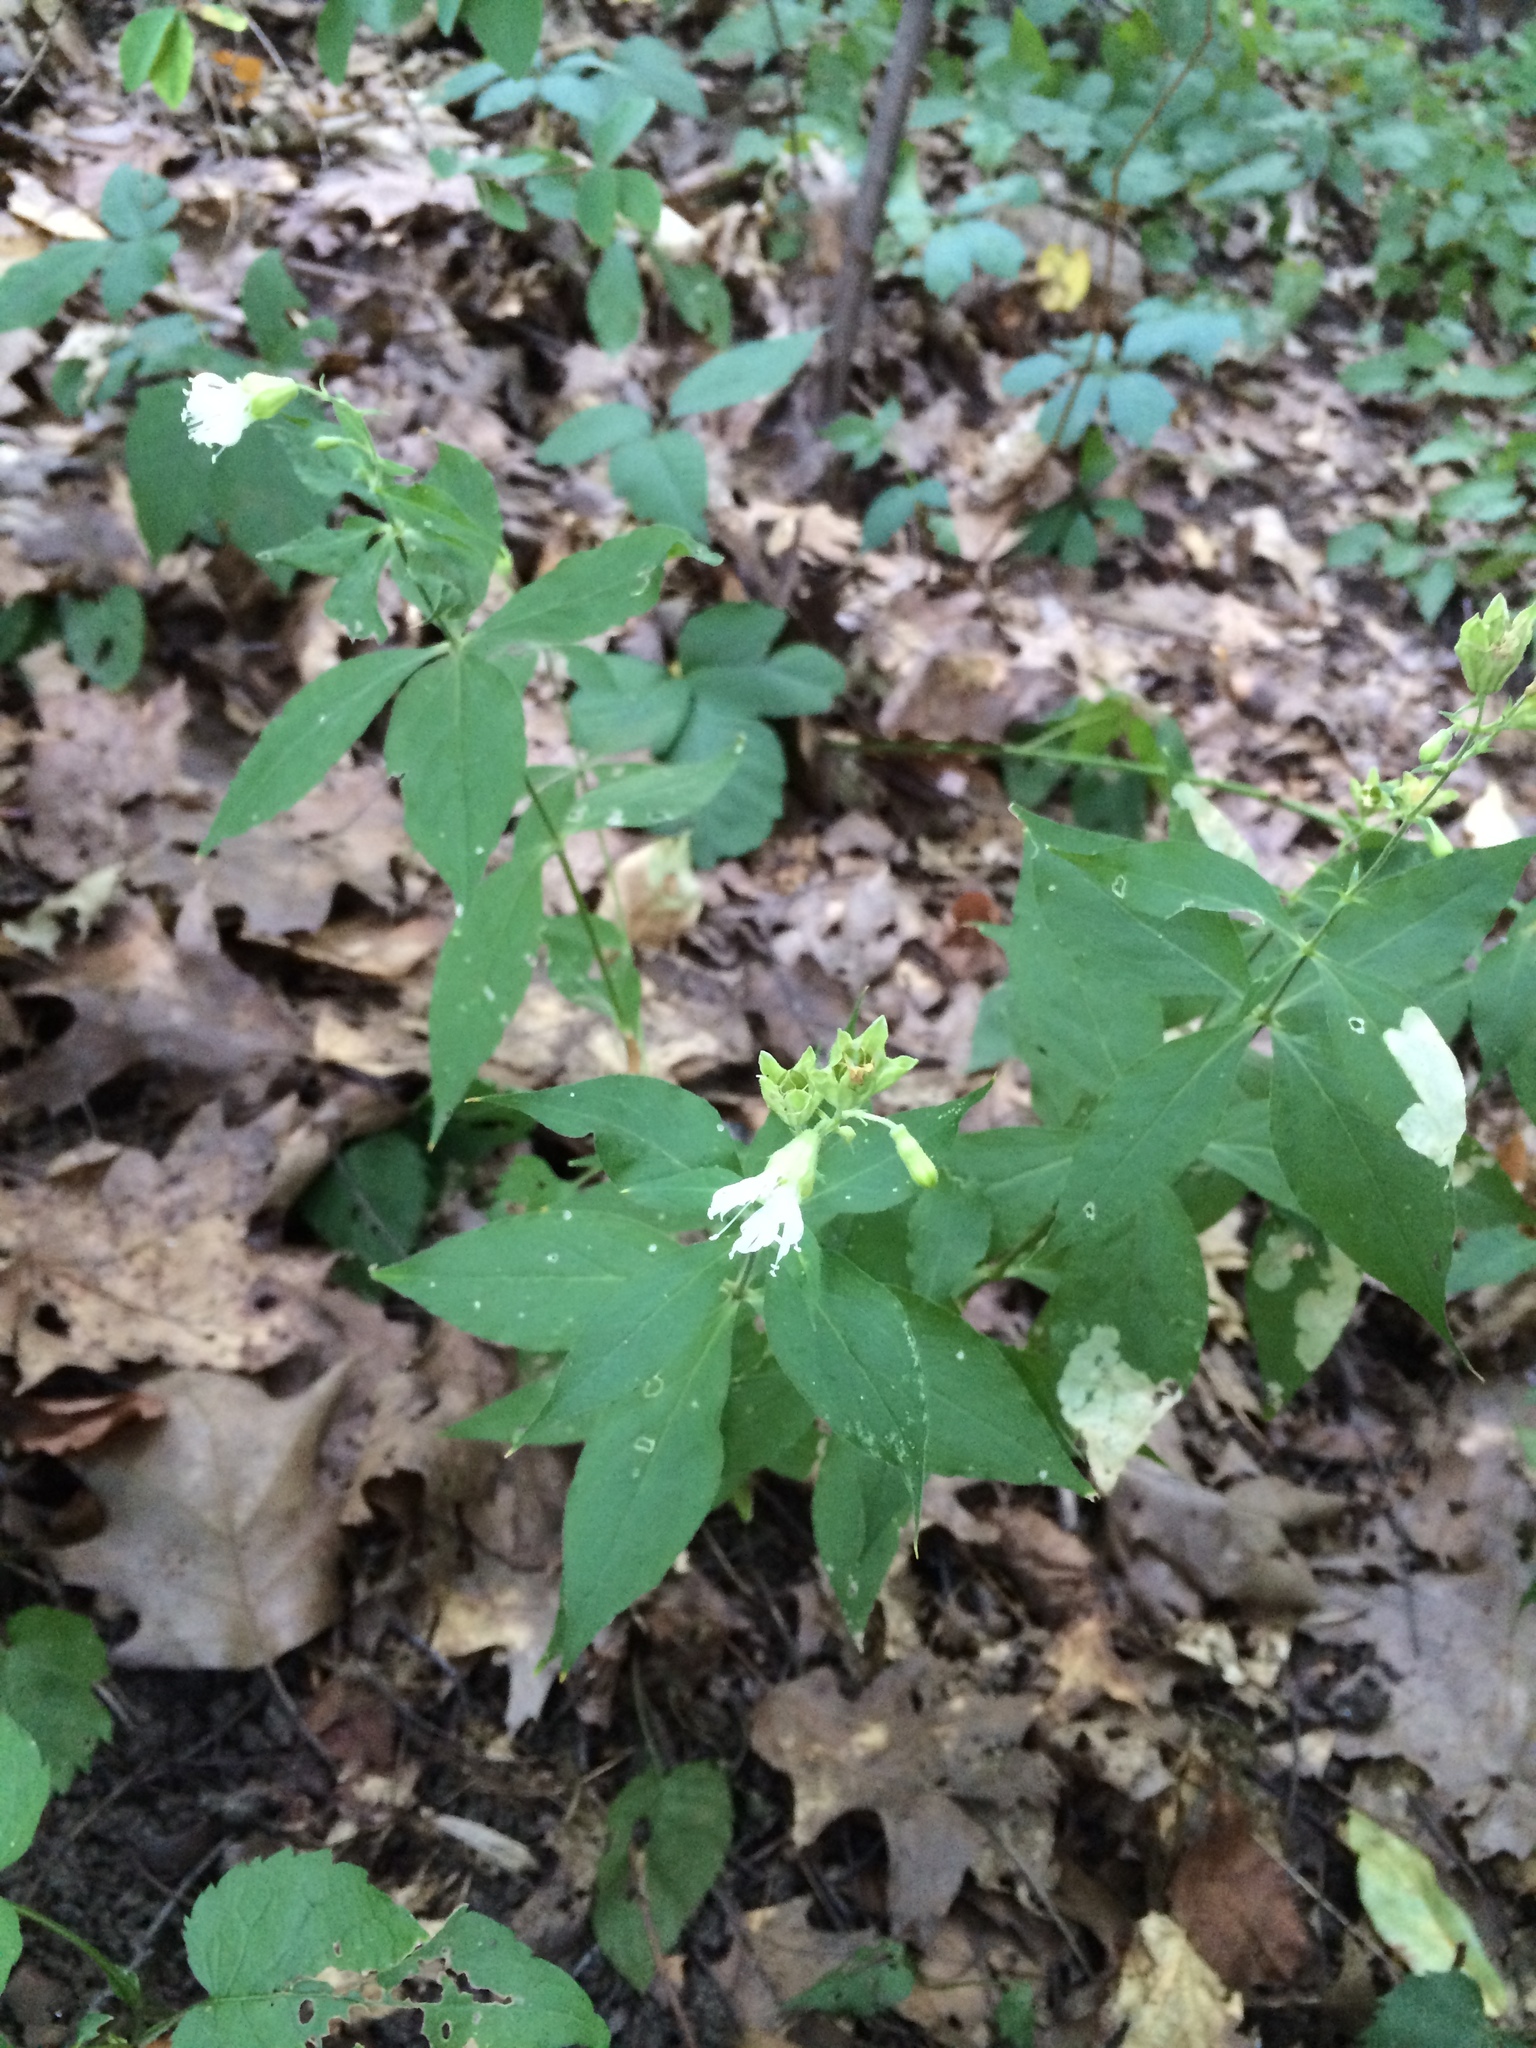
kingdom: Plantae
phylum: Tracheophyta
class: Magnoliopsida
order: Caryophyllales
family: Caryophyllaceae
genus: Silene
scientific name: Silene stellata
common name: Starry campion
